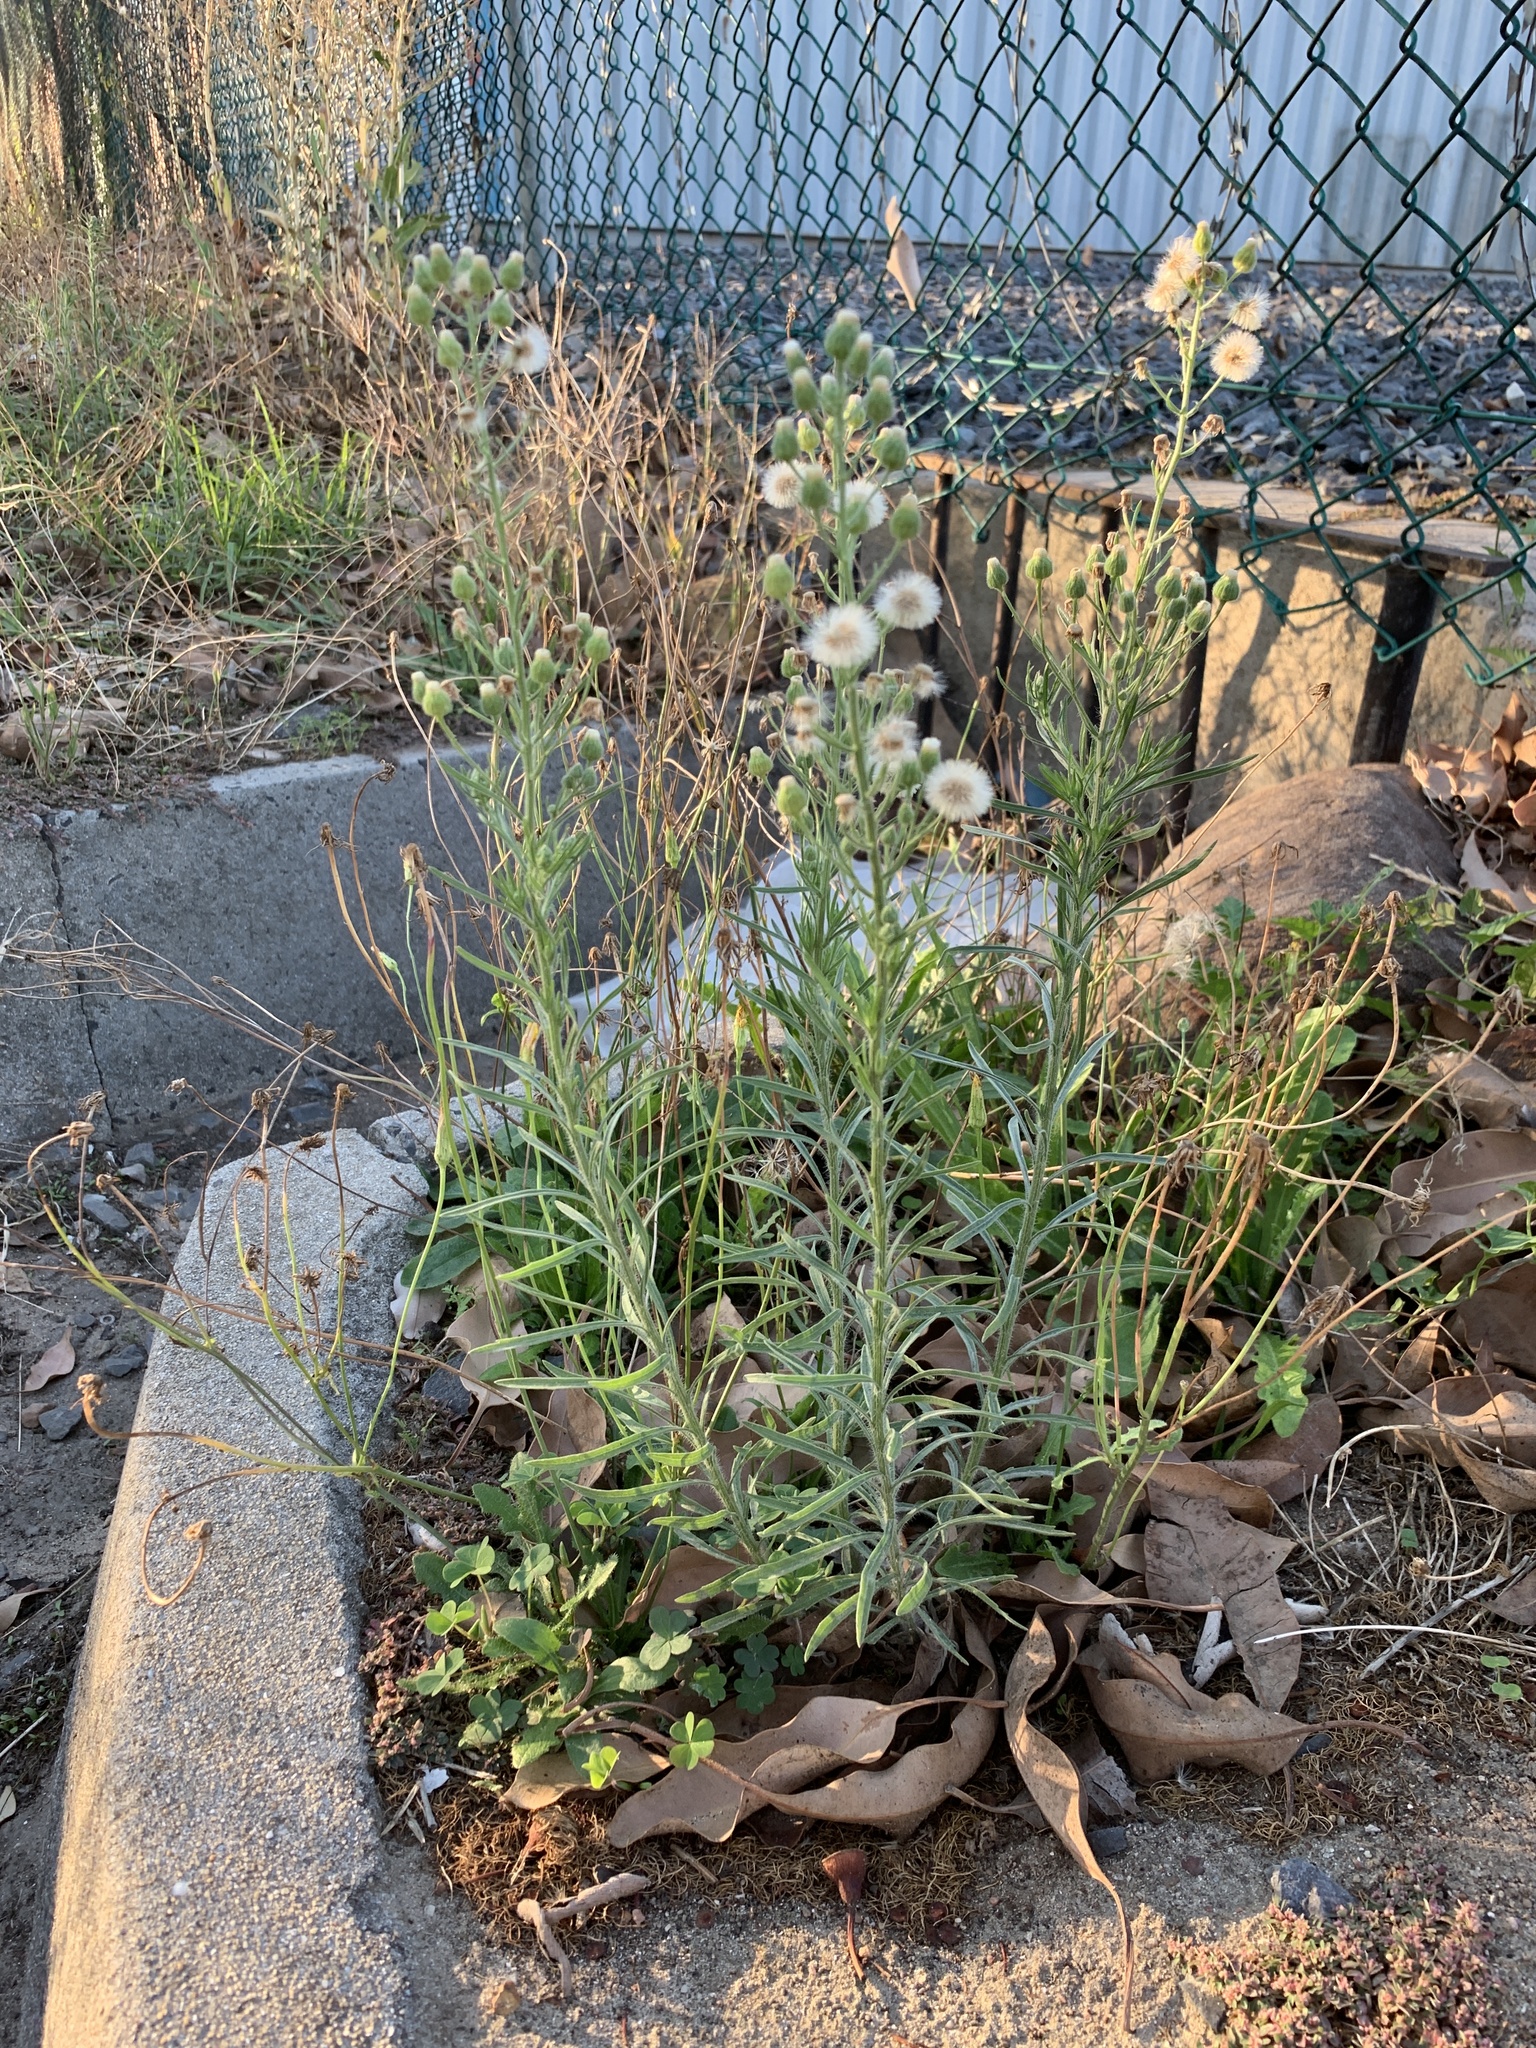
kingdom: Plantae
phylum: Tracheophyta
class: Magnoliopsida
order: Asterales
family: Asteraceae
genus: Erigeron
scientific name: Erigeron bonariensis
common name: Argentine fleabane
